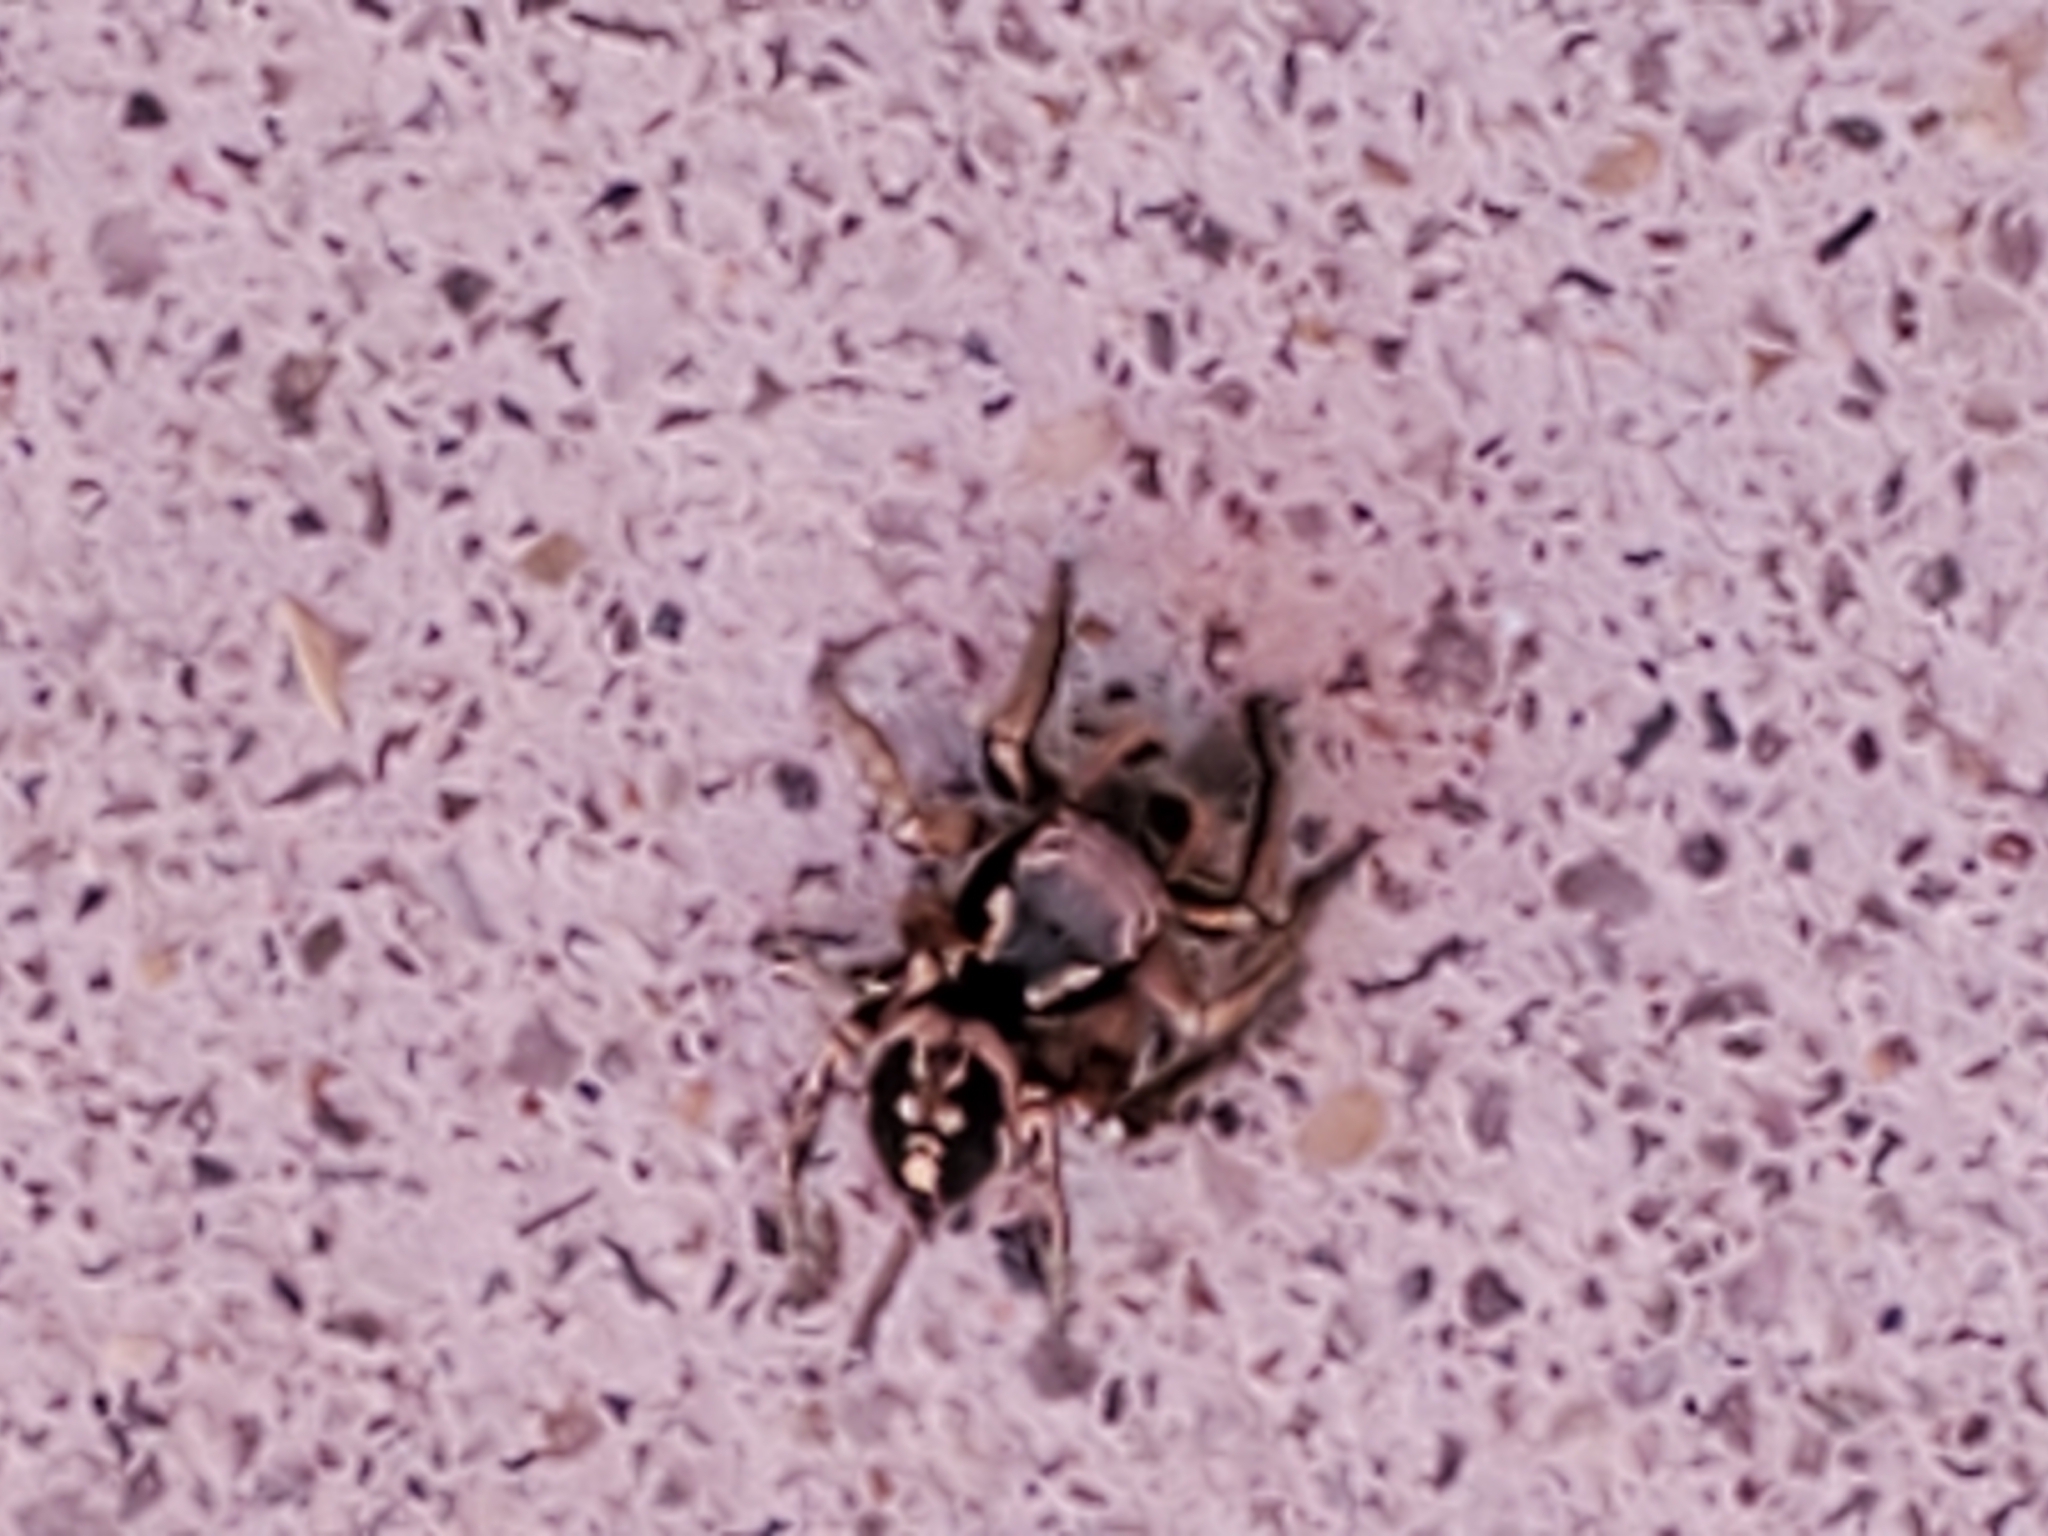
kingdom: Animalia
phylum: Arthropoda
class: Arachnida
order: Araneae
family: Salticidae
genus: Habronattus
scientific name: Habronattus pyrrithrix
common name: Jumping spider
